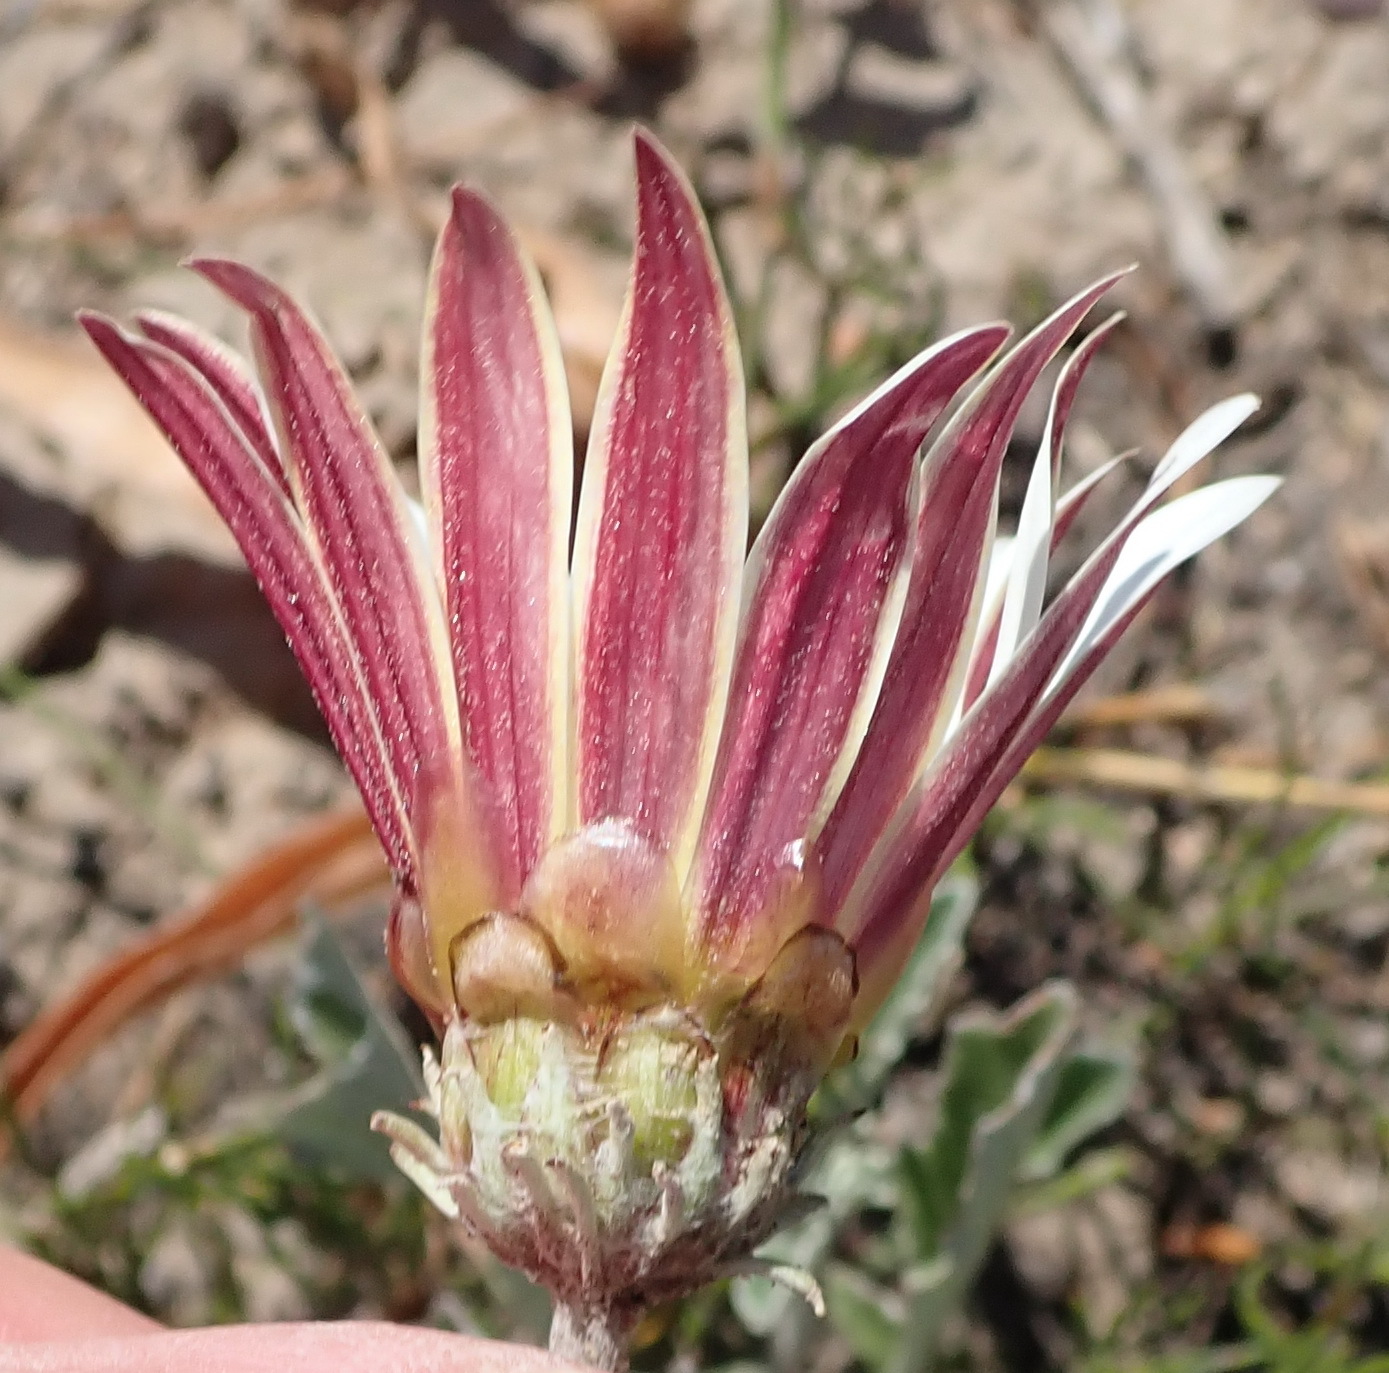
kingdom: Plantae
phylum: Tracheophyta
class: Magnoliopsida
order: Asterales
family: Asteraceae
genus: Arctotis
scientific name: Arctotis pinnatifida
